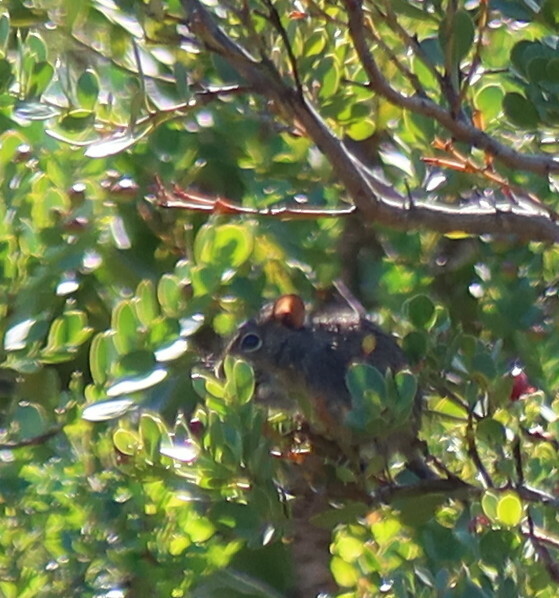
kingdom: Plantae
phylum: Tracheophyta
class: Magnoliopsida
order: Santalales
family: Santalaceae
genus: Osyris
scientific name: Osyris compressa
